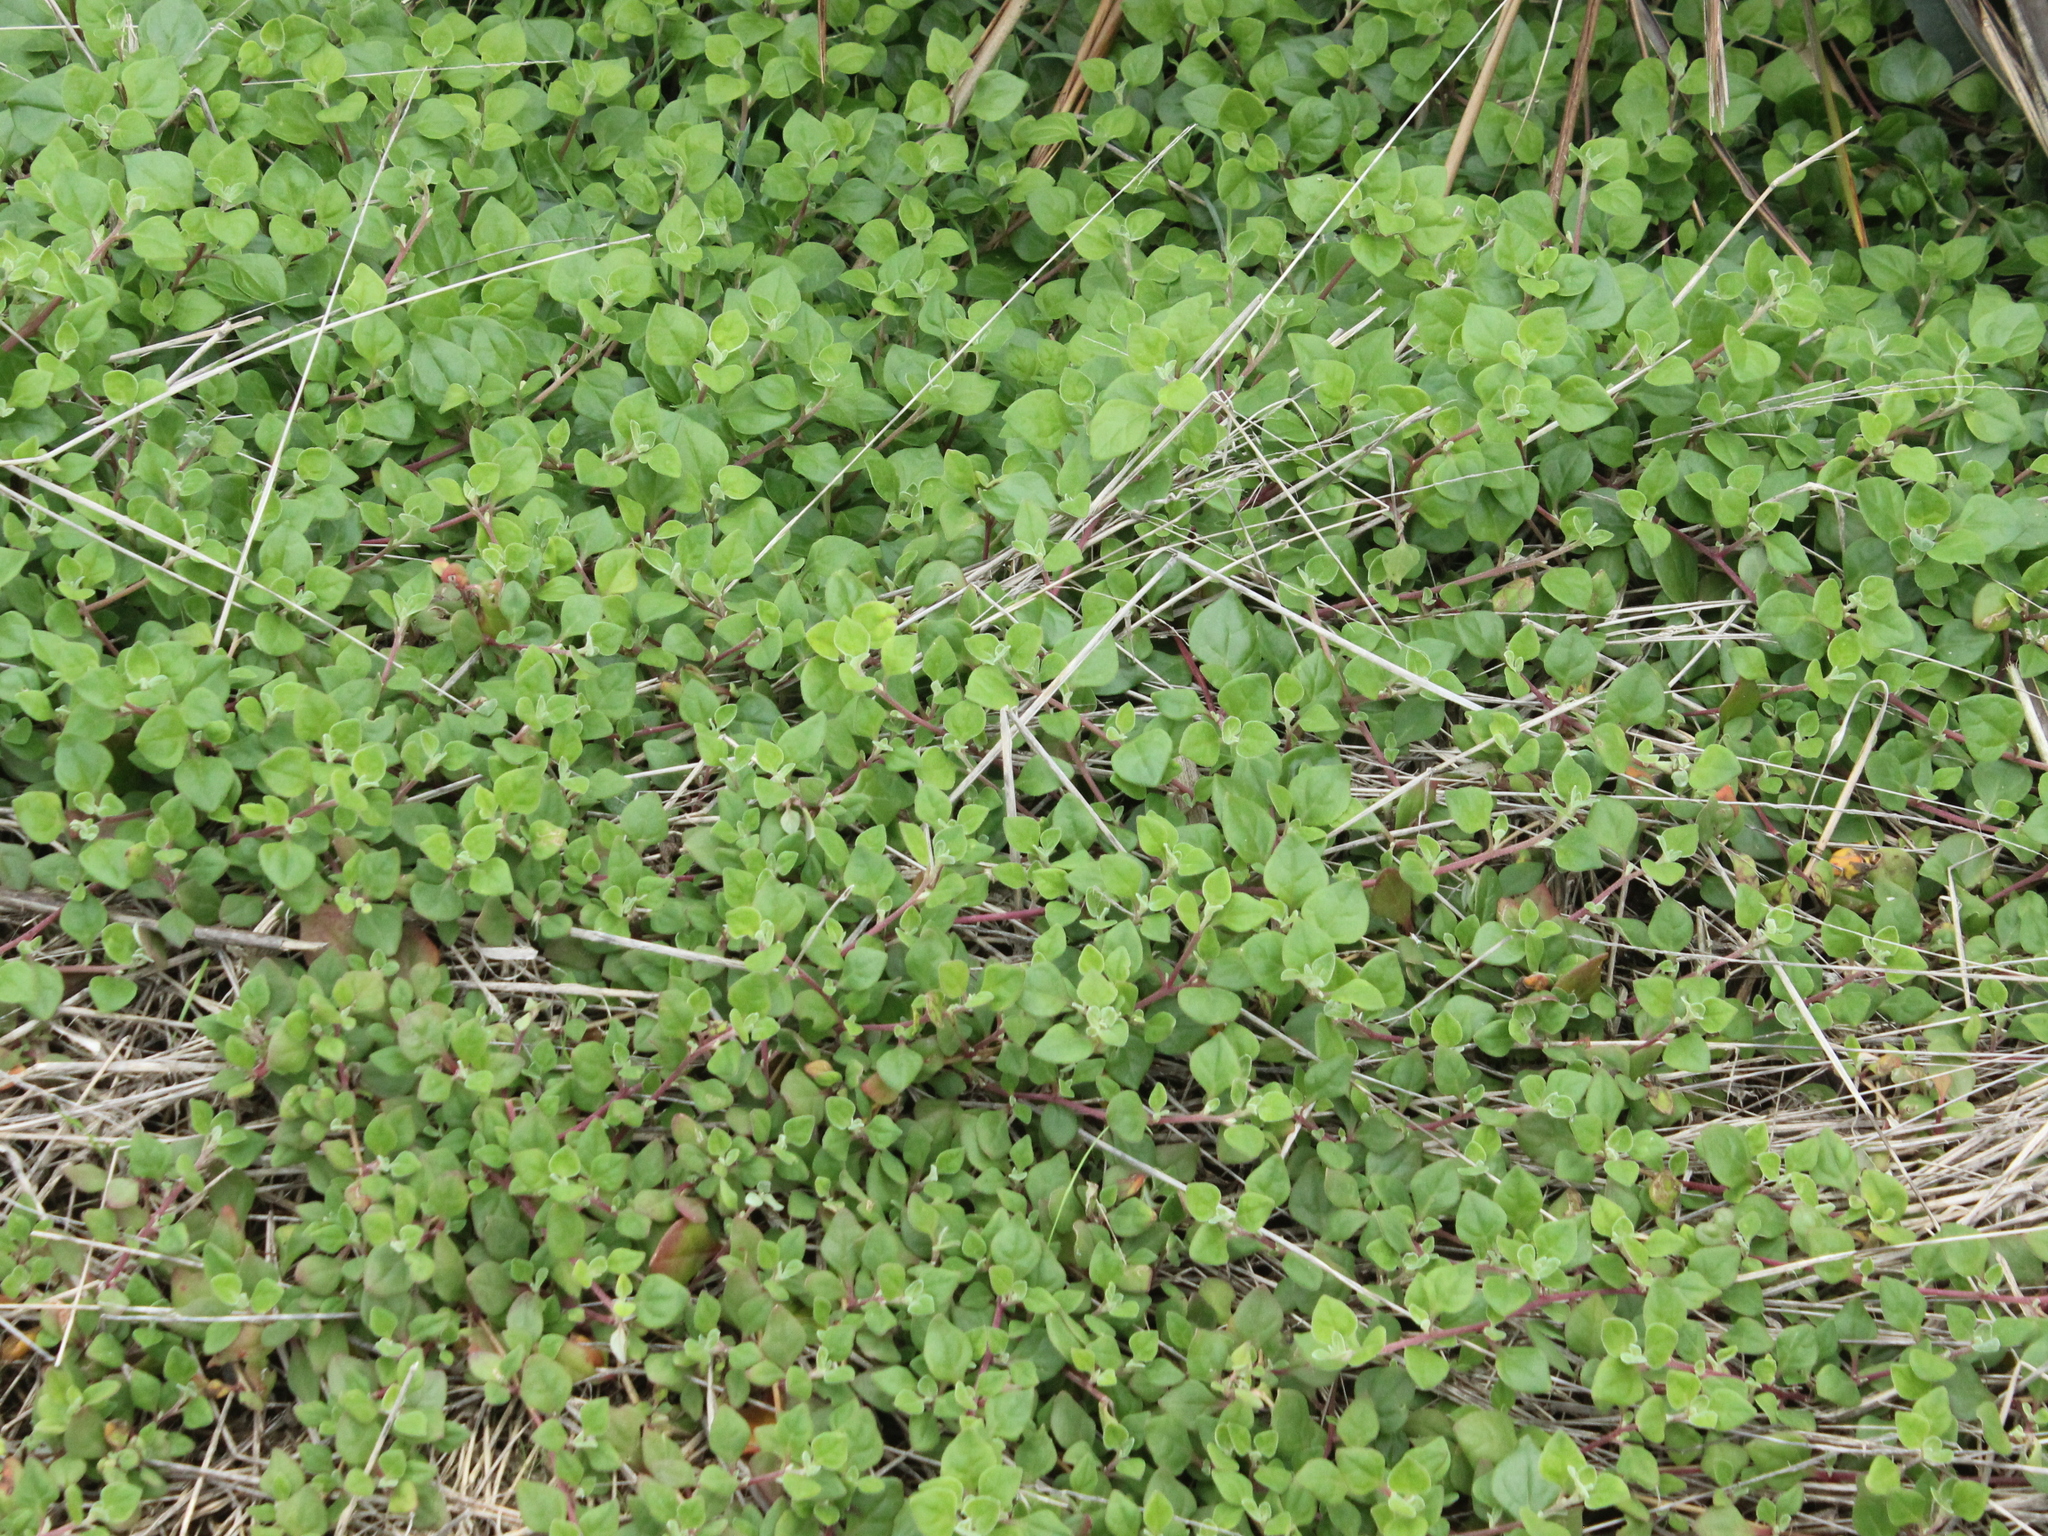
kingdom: Plantae
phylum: Tracheophyta
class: Magnoliopsida
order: Caryophyllales
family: Aizoaceae
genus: Tetragonia
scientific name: Tetragonia implexicoma
